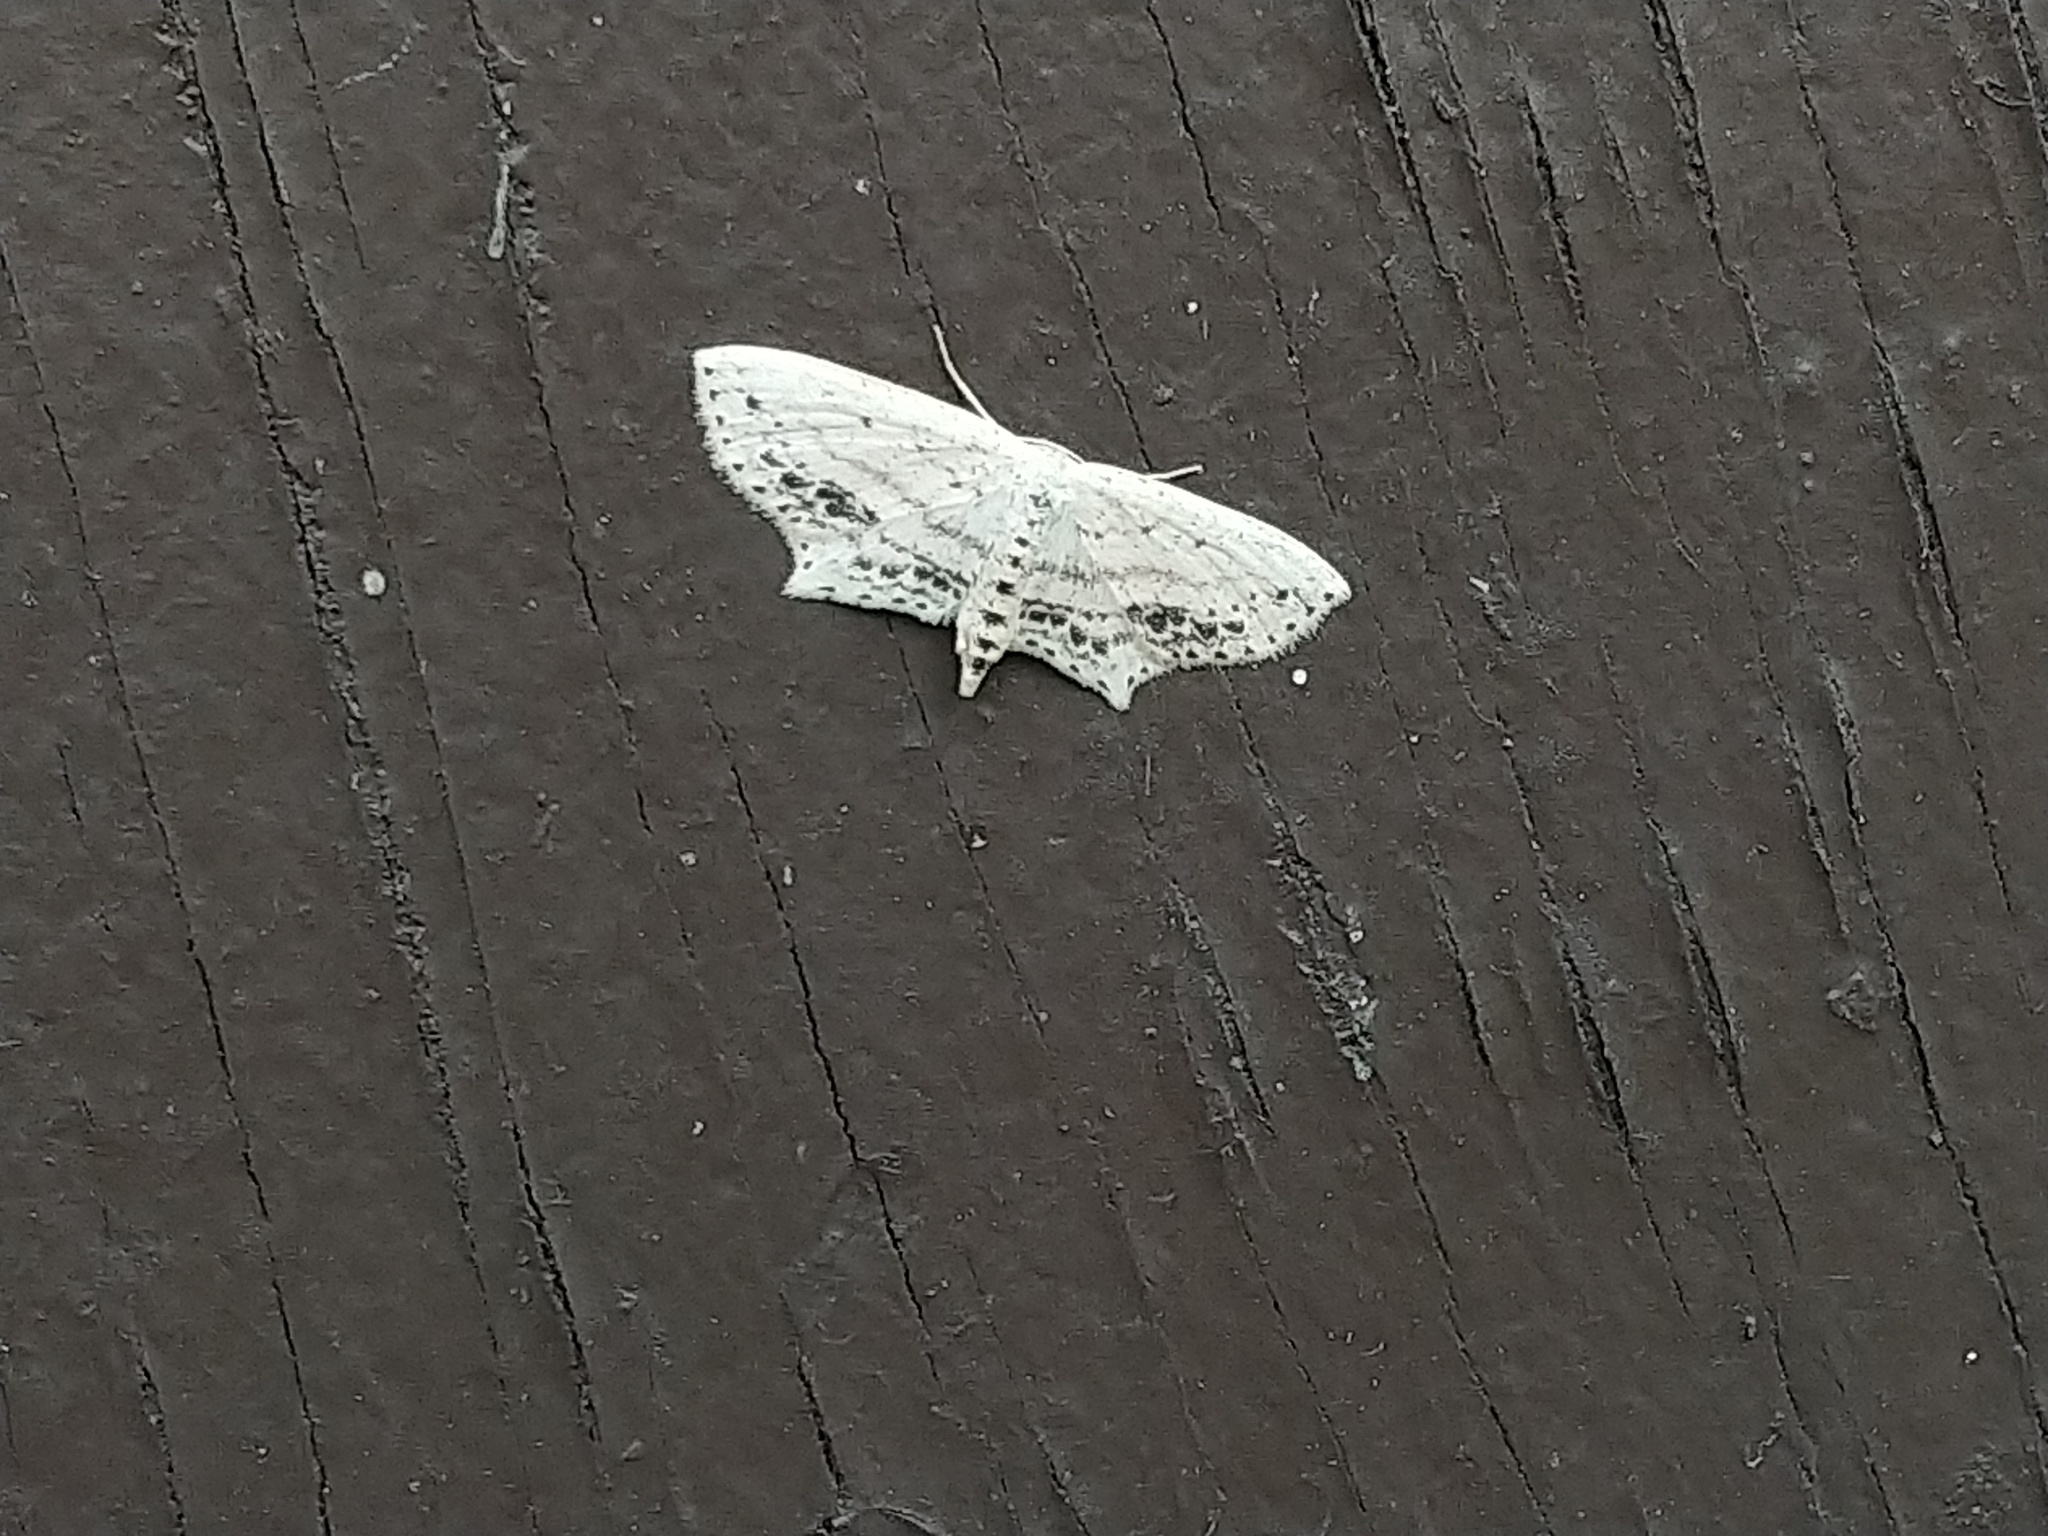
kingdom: Animalia
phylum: Arthropoda
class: Insecta
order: Lepidoptera
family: Geometridae
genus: Scopula
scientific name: Scopula cacuminaria
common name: Frosted tan wave
